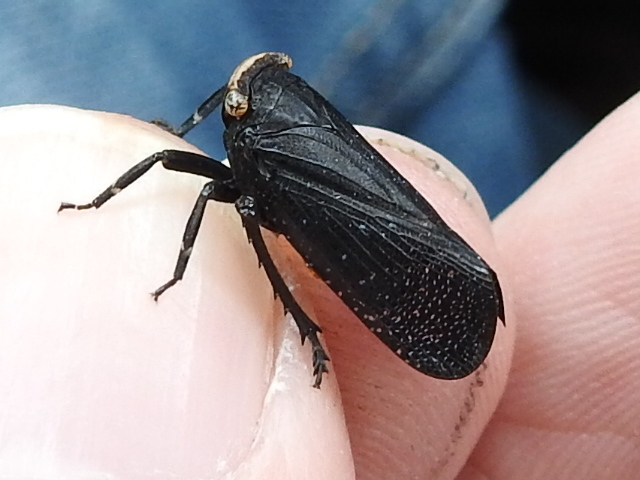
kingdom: Animalia
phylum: Arthropoda
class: Insecta
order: Hemiptera
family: Fulgoridae
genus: Crepusia
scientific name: Crepusia fuliginosa
